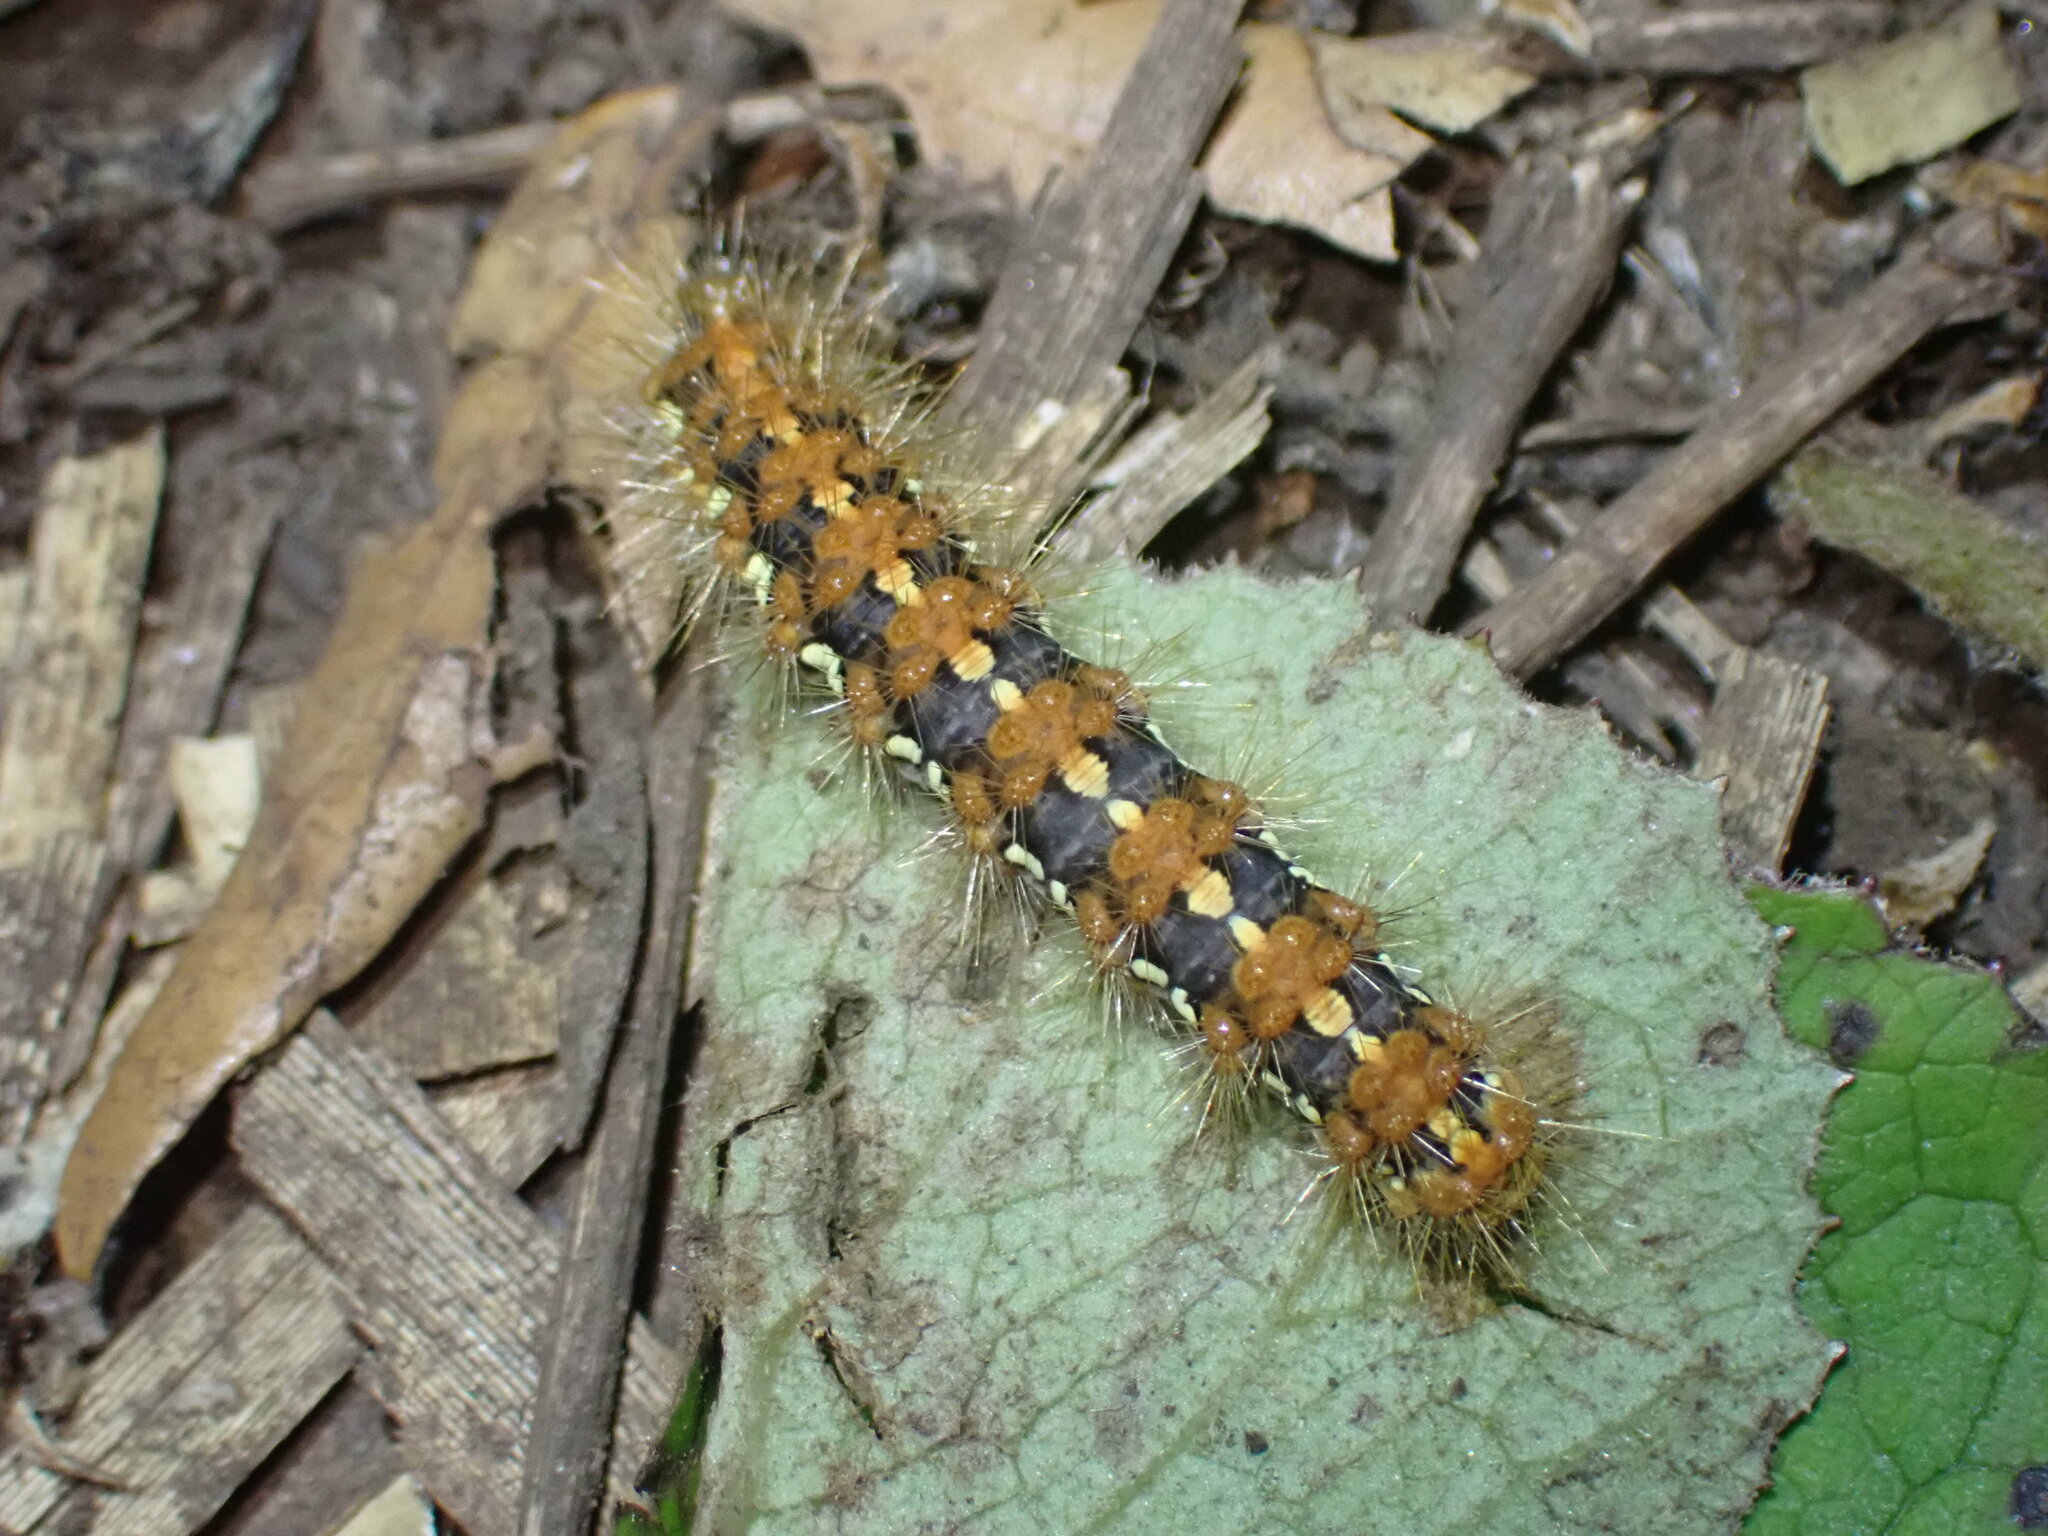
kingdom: Animalia
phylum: Arthropoda
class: Insecta
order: Lepidoptera
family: Erebidae
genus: Euplagia
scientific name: Euplagia quadripunctaria
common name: Jersey tiger
